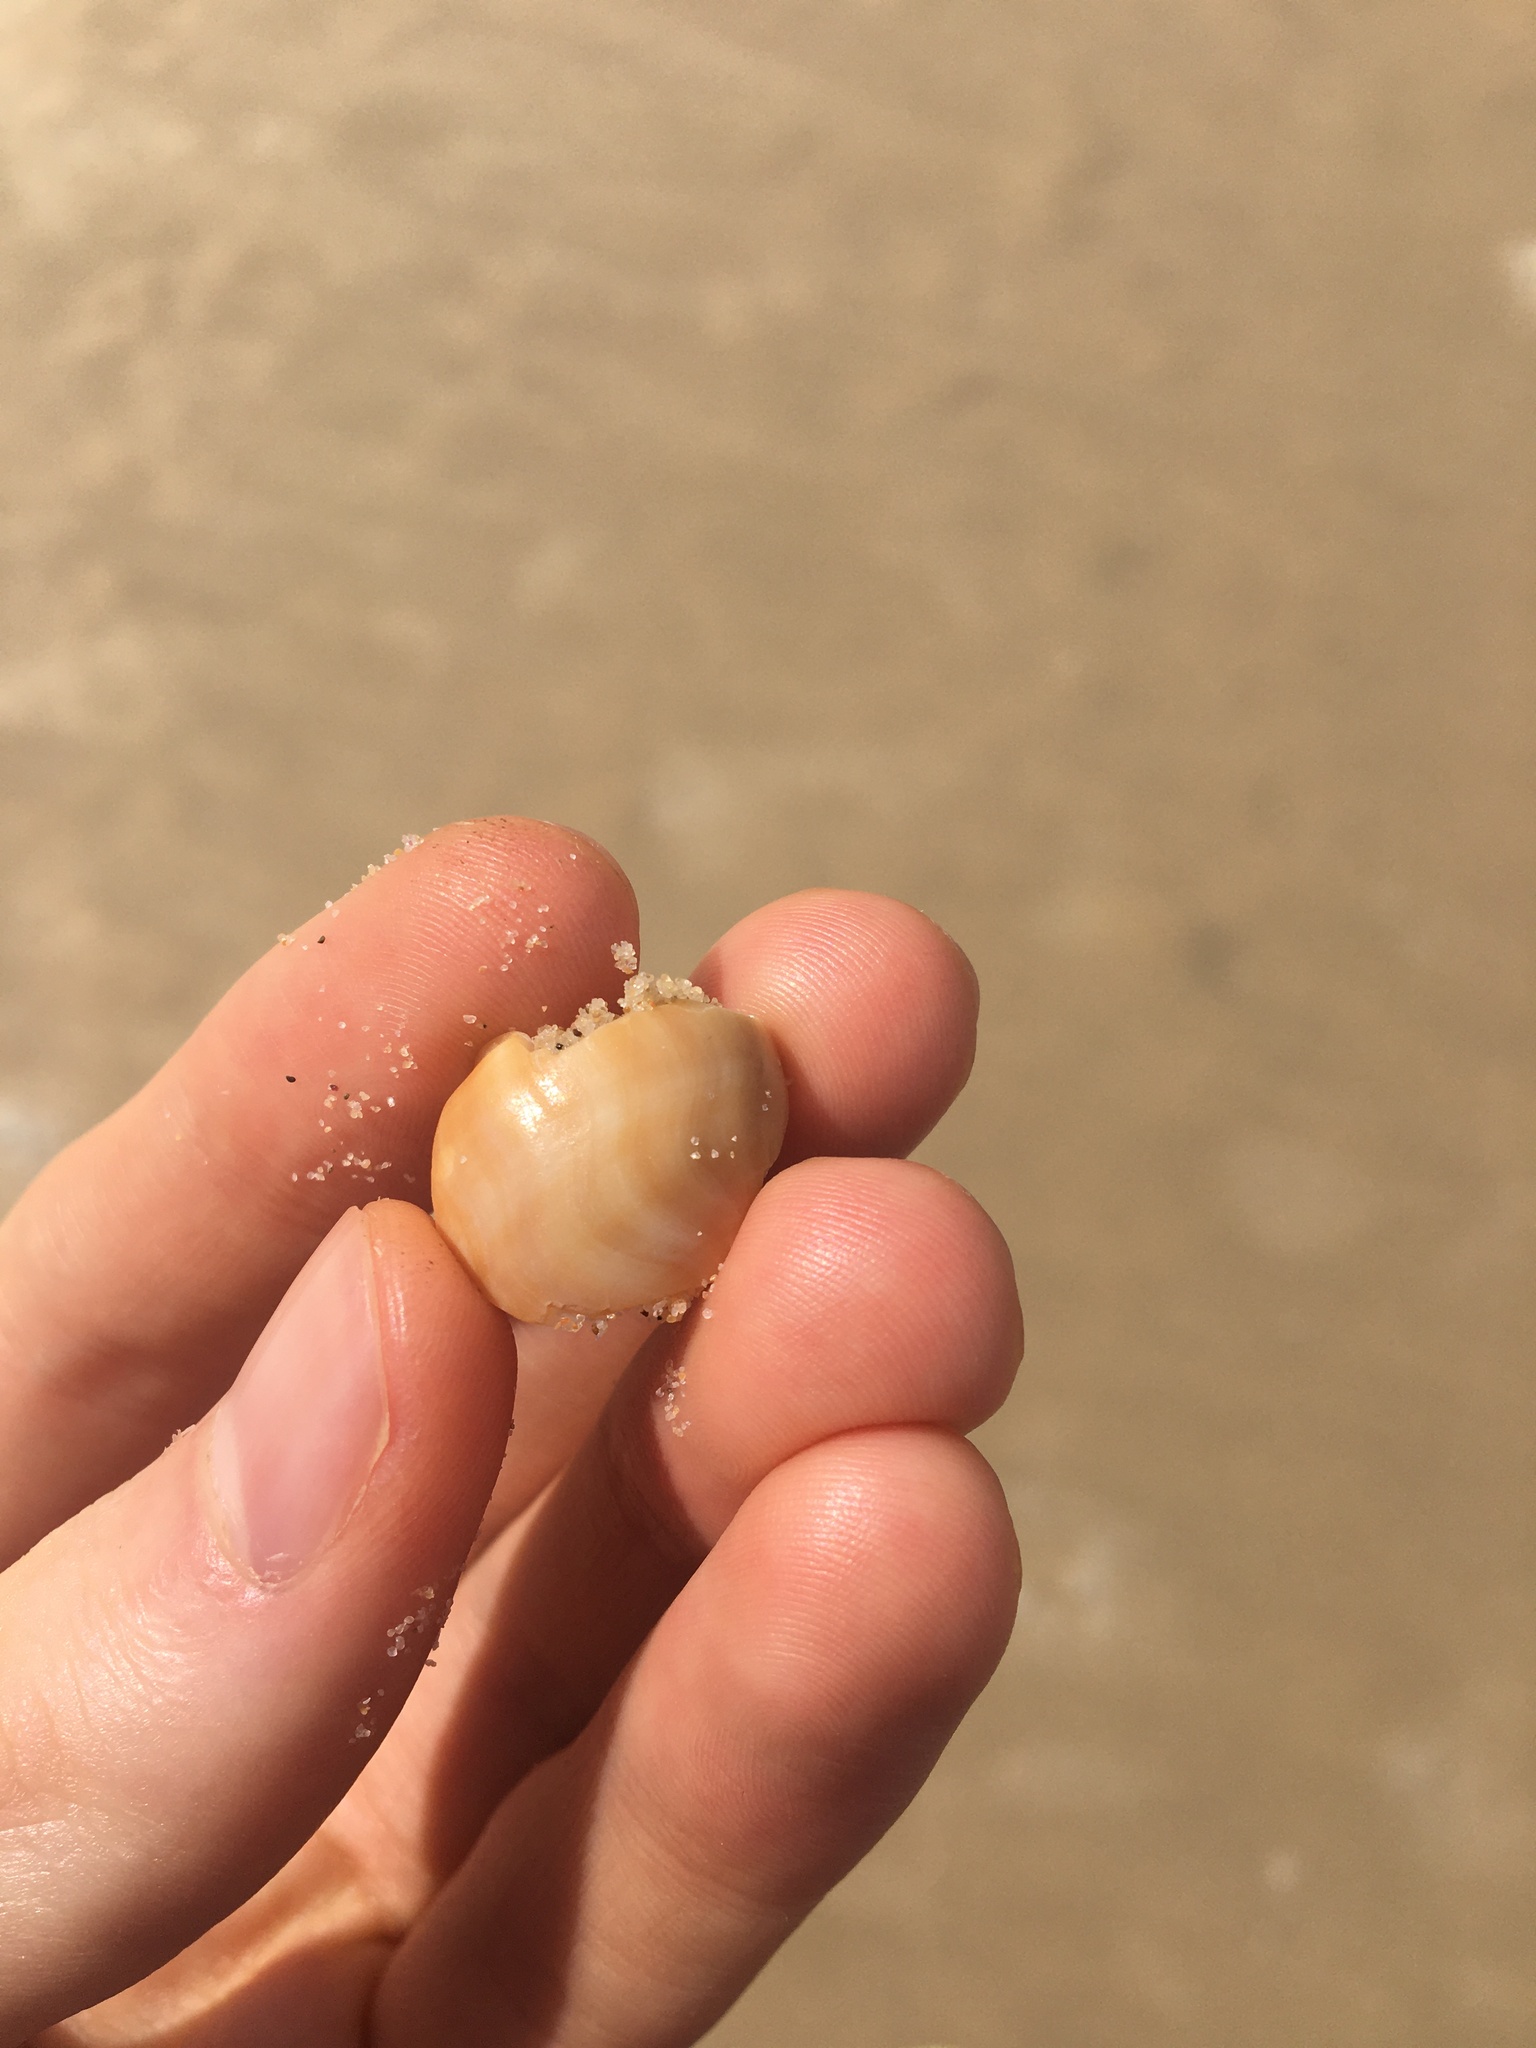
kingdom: Animalia
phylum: Mollusca
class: Gastropoda
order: Littorinimorpha
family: Struthiolariidae
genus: Tylospira
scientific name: Tylospira scutulata
